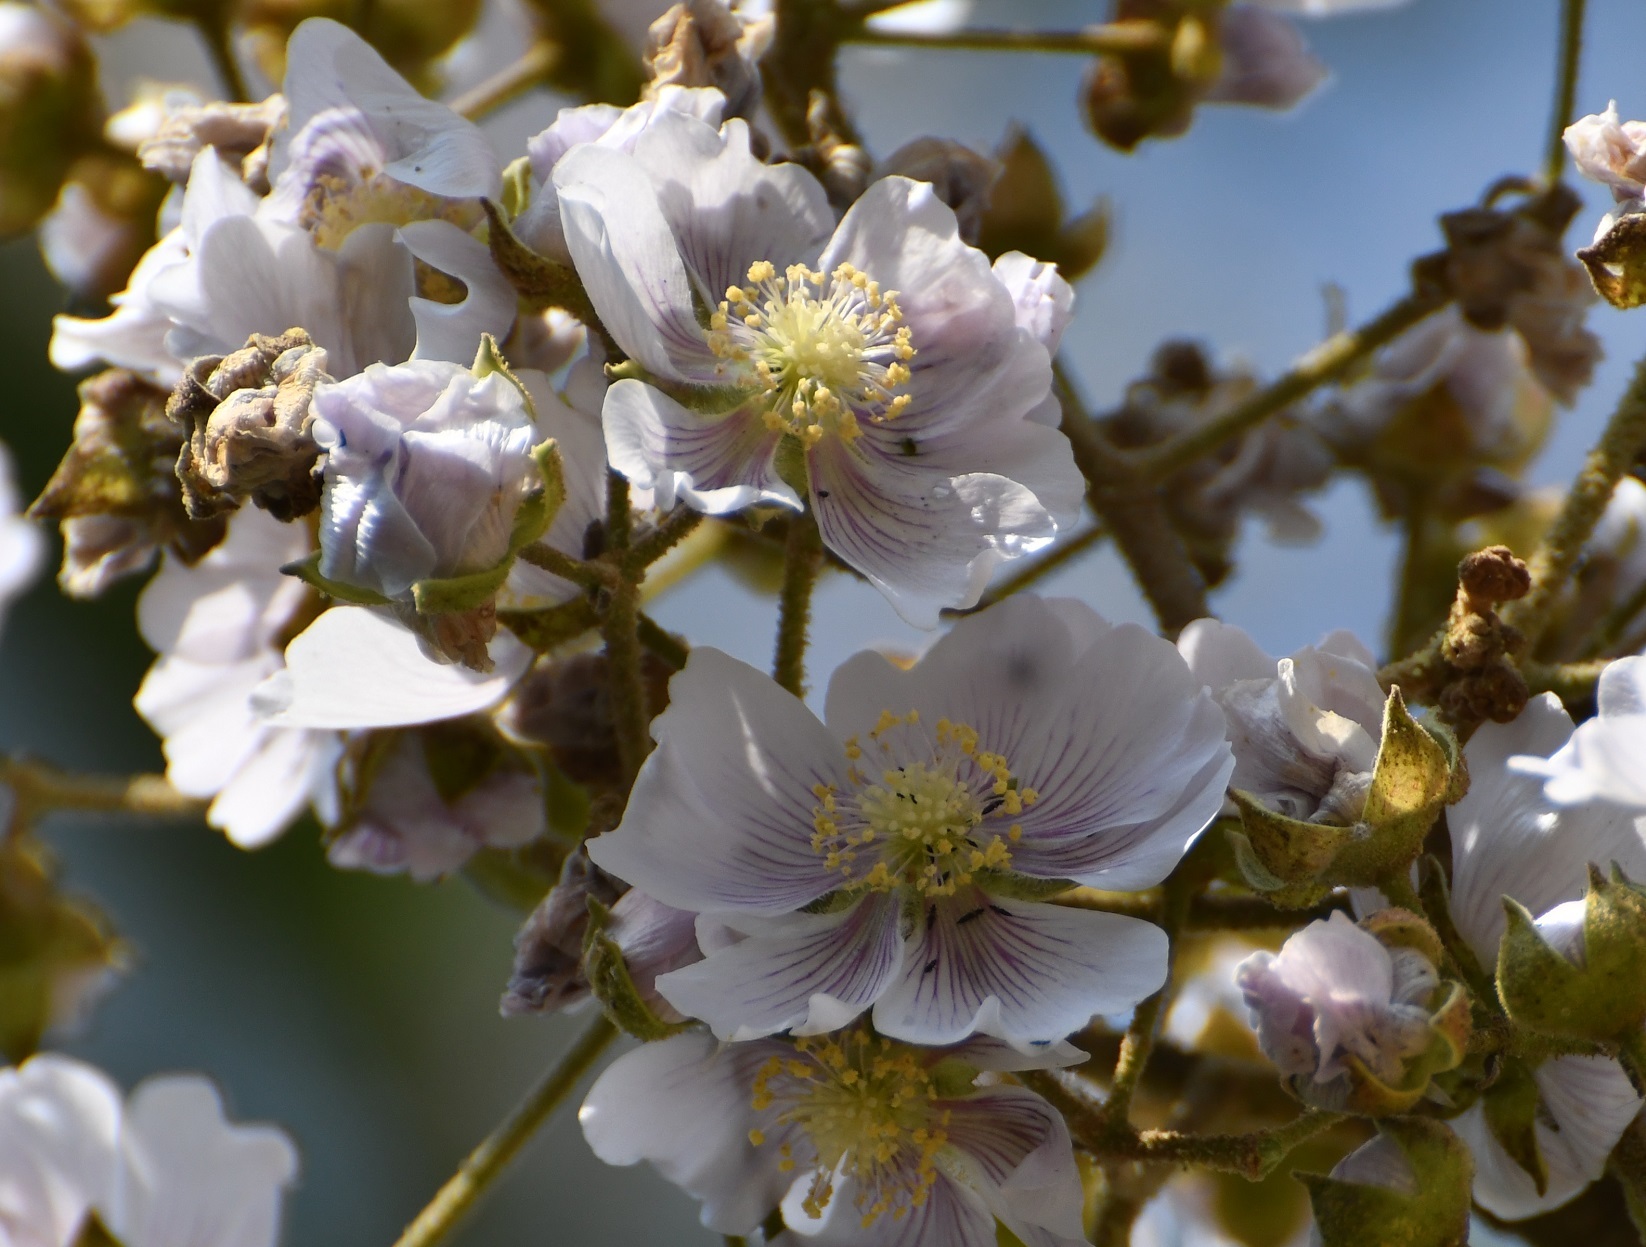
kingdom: Plantae
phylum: Tracheophyta
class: Magnoliopsida
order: Malvales
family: Malvaceae
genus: Robinsonella
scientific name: Robinsonella lindeniana
